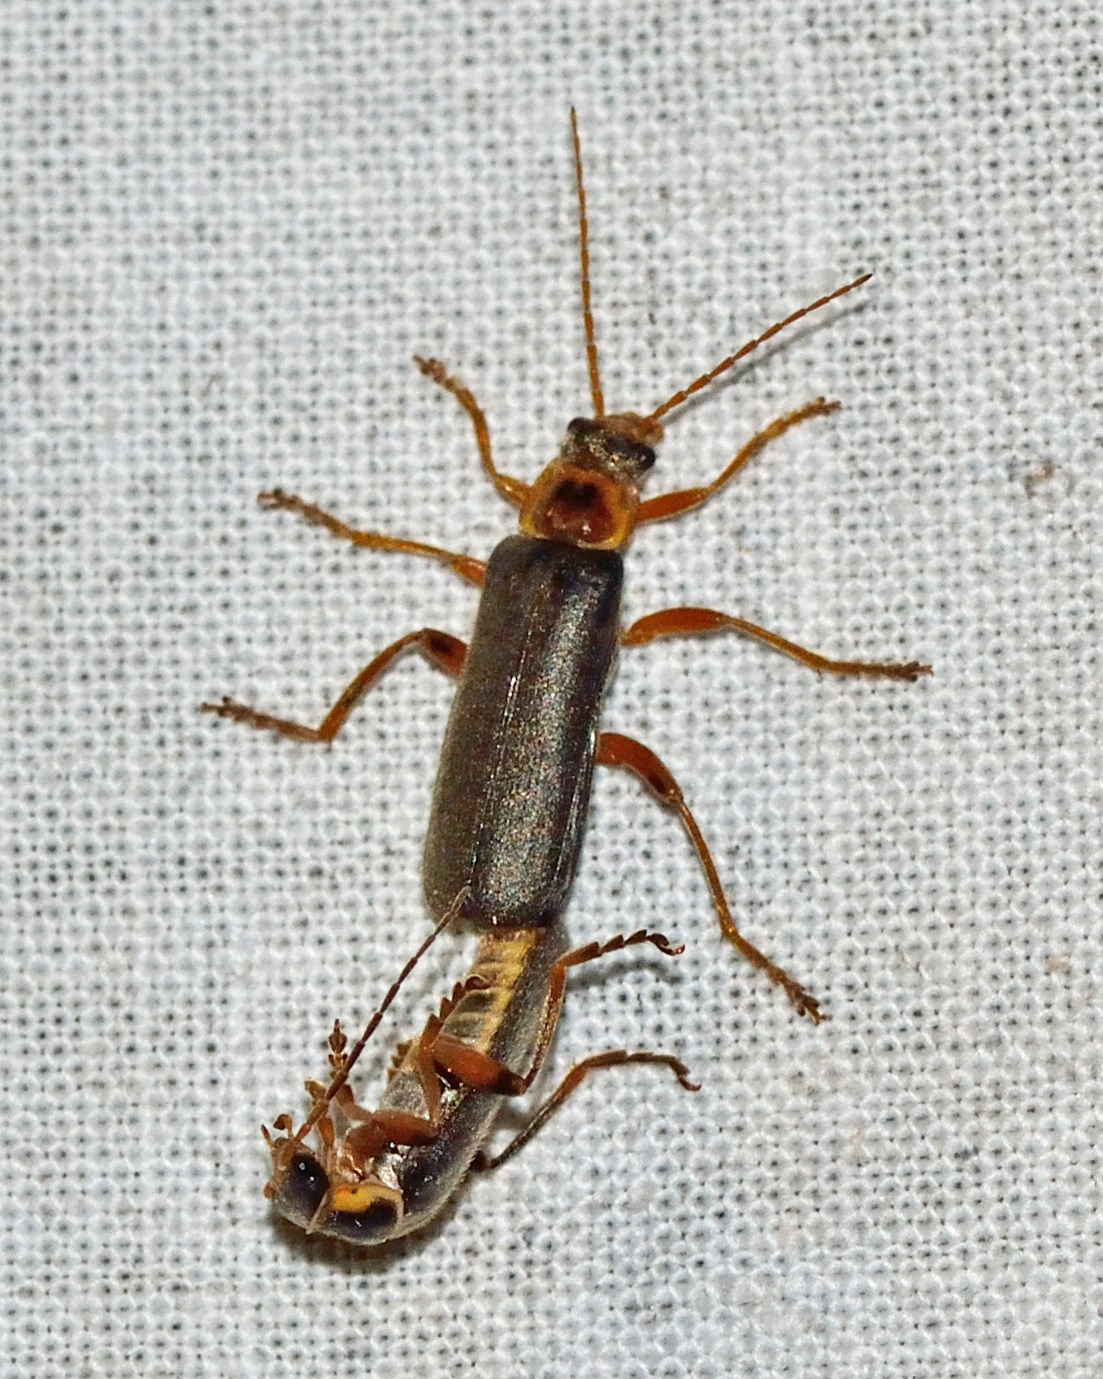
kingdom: Animalia
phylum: Arthropoda
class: Insecta
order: Coleoptera
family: Cantharidae
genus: Cantharis
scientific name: Cantharis nigricans
